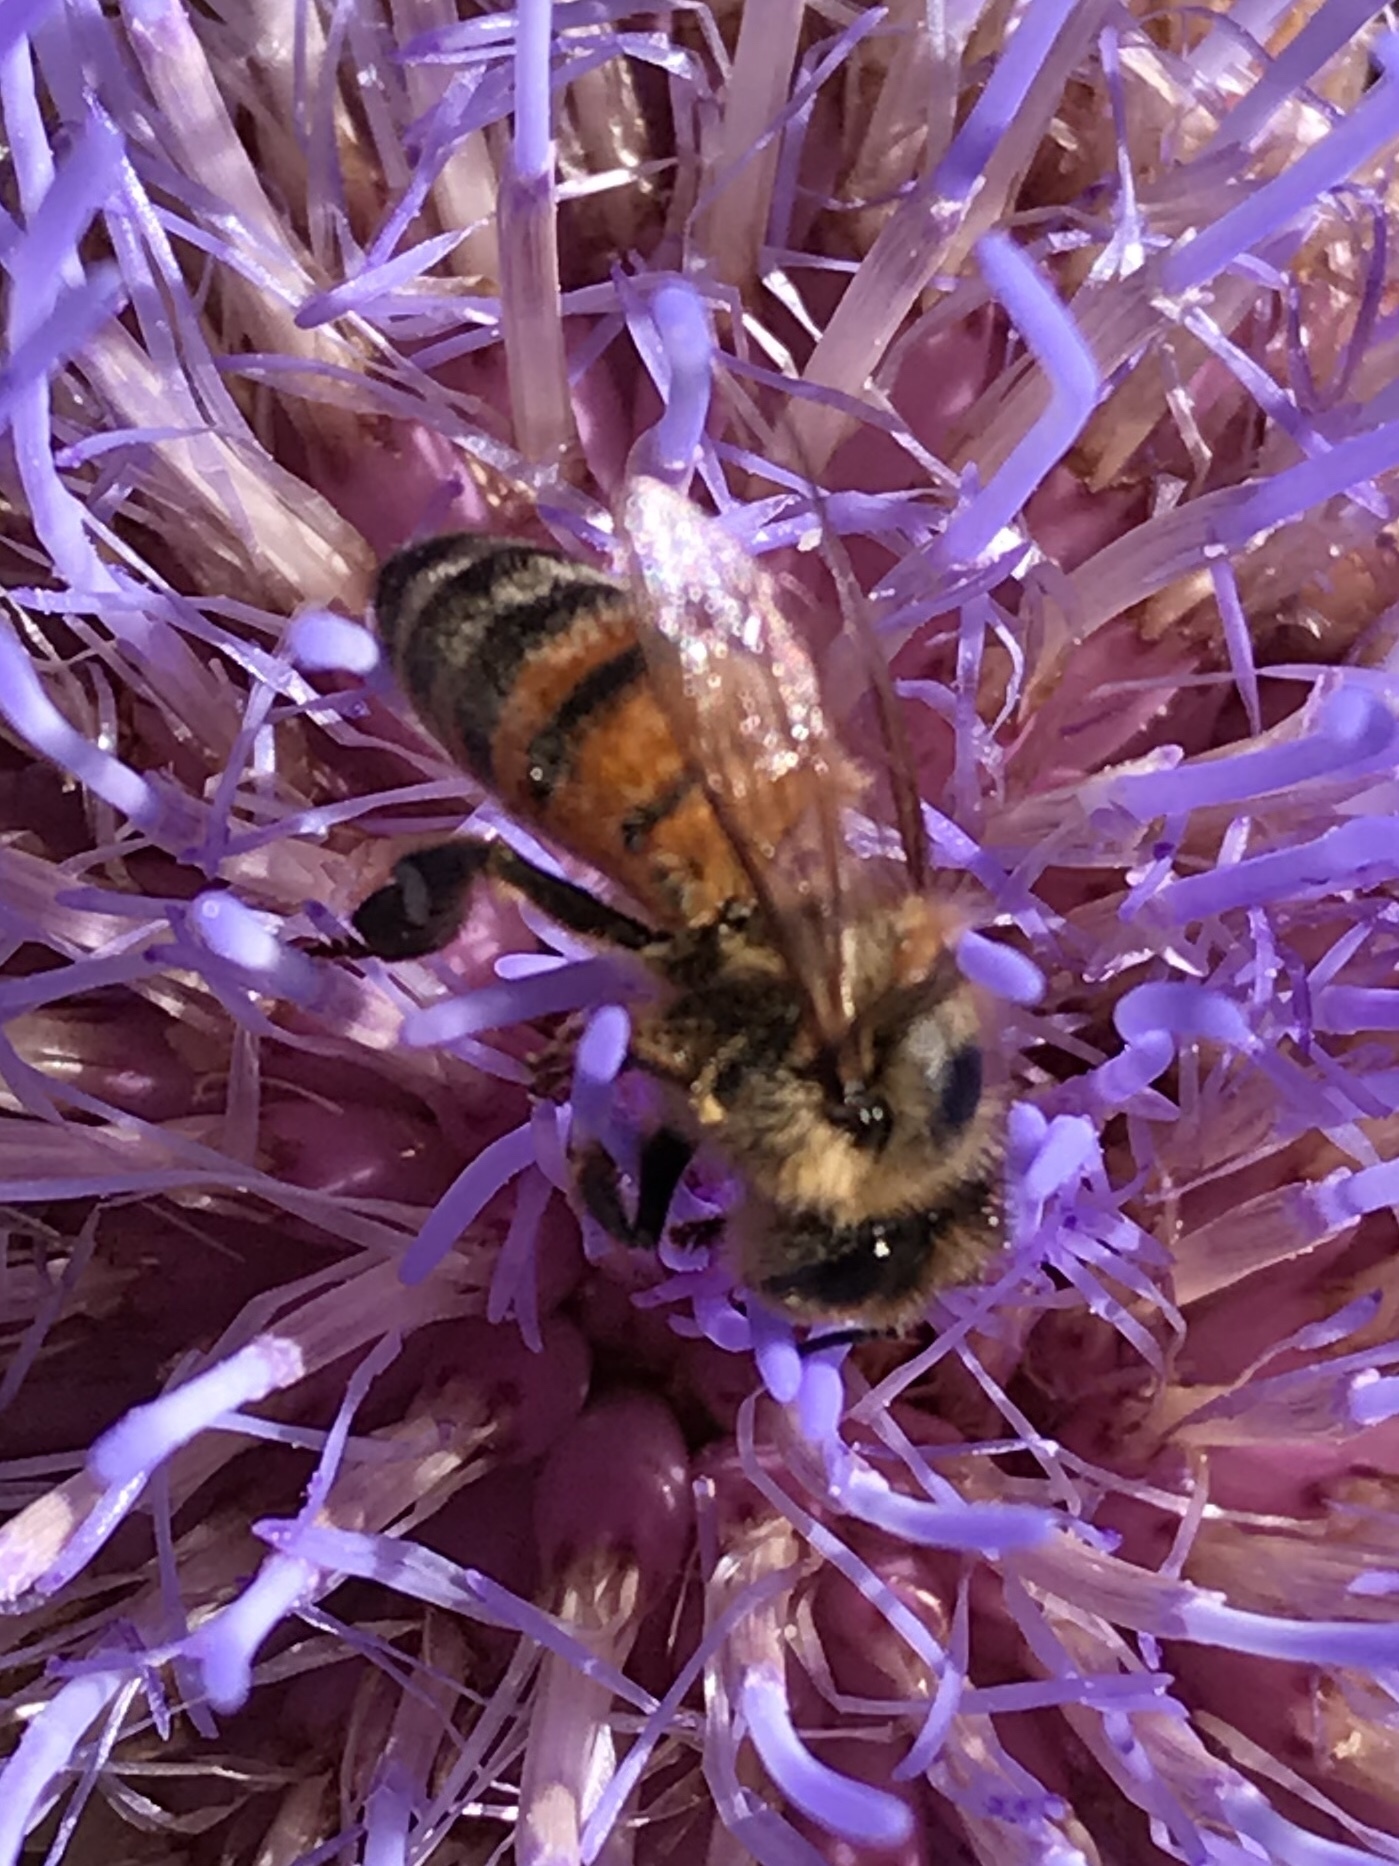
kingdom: Animalia
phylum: Arthropoda
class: Insecta
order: Hymenoptera
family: Apidae
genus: Apis
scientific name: Apis mellifera
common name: Honey bee
